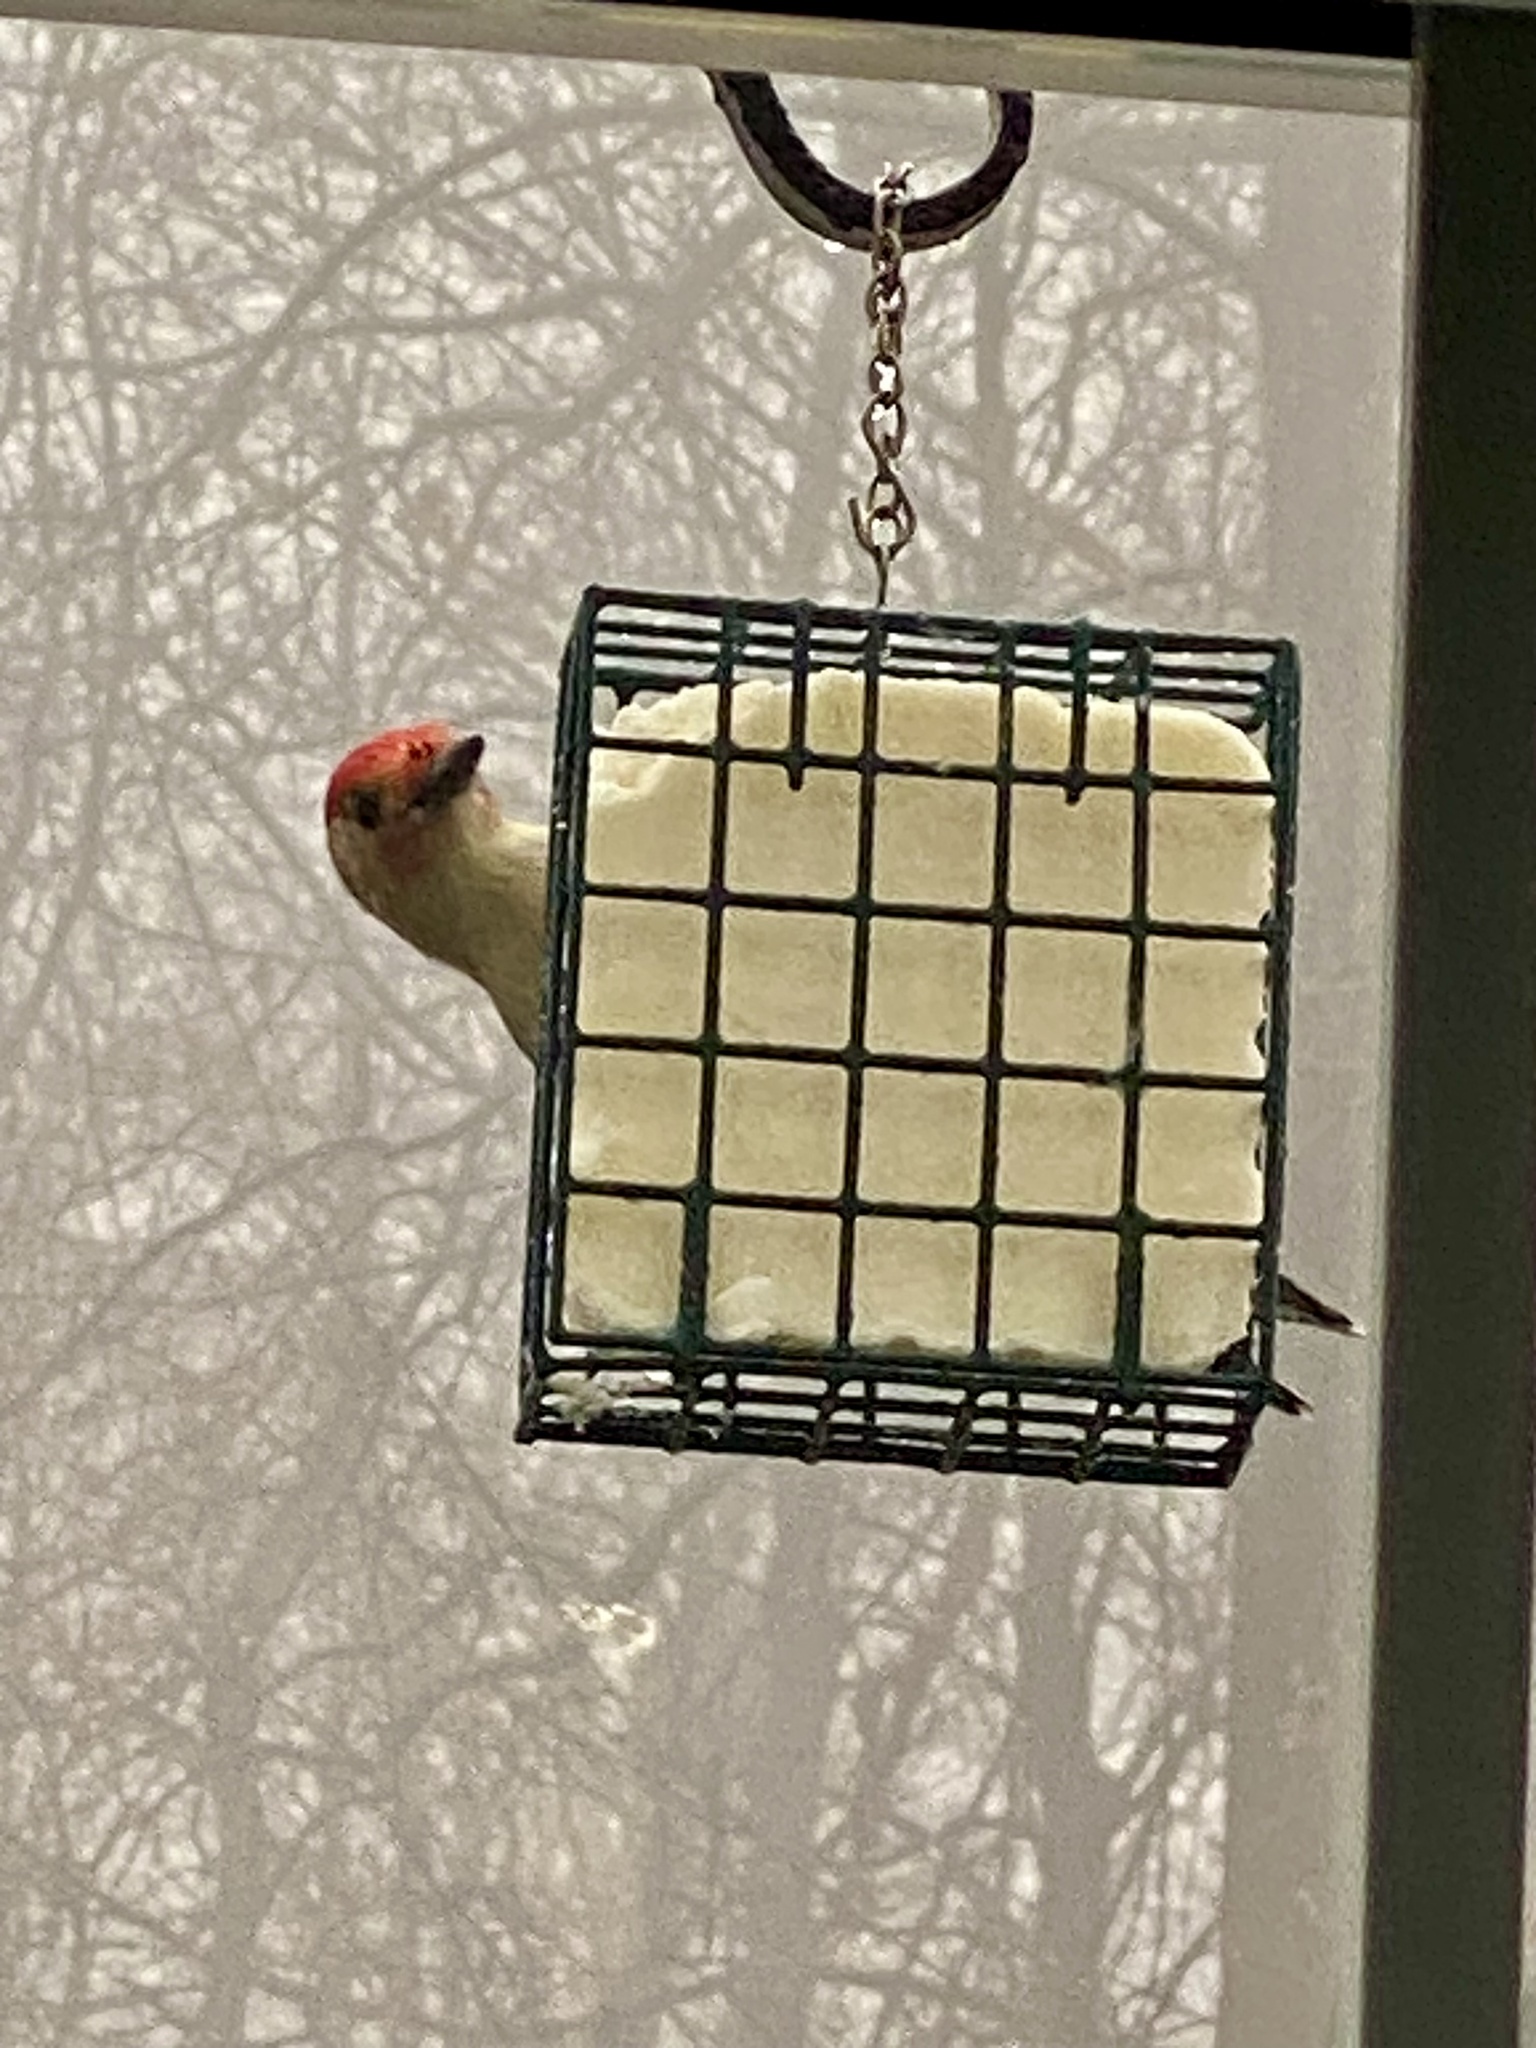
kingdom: Animalia
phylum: Chordata
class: Aves
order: Piciformes
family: Picidae
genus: Melanerpes
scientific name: Melanerpes carolinus
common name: Red-bellied woodpecker
